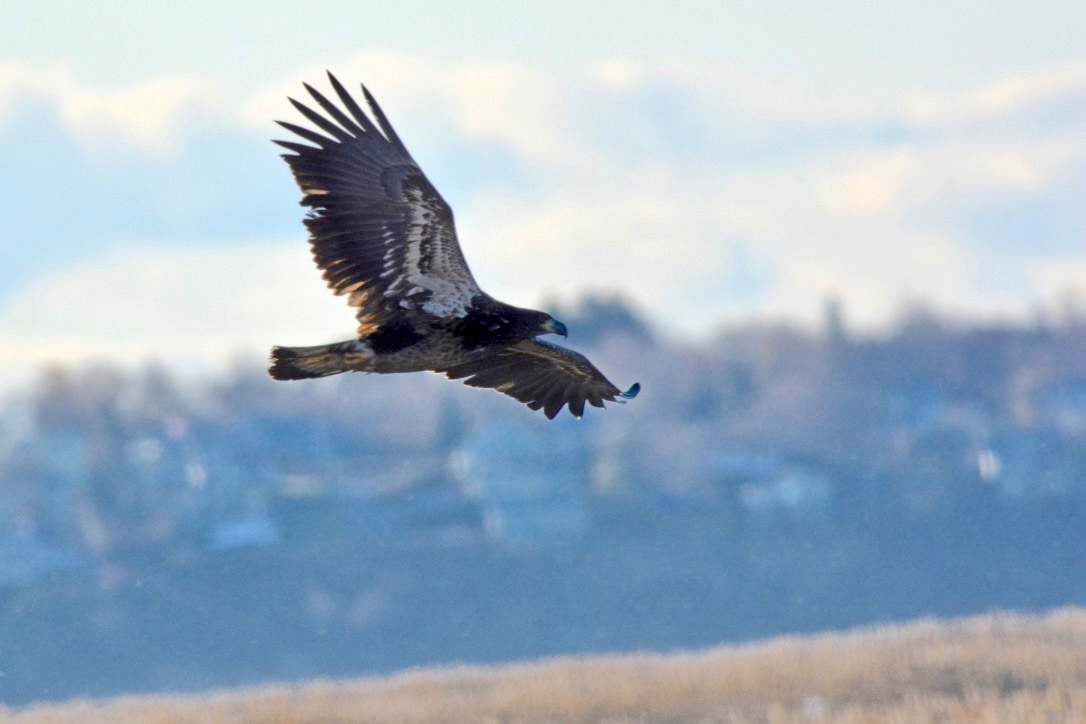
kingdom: Animalia
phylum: Chordata
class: Aves
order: Accipitriformes
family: Accipitridae
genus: Haliaeetus
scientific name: Haliaeetus leucocephalus
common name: Bald eagle
